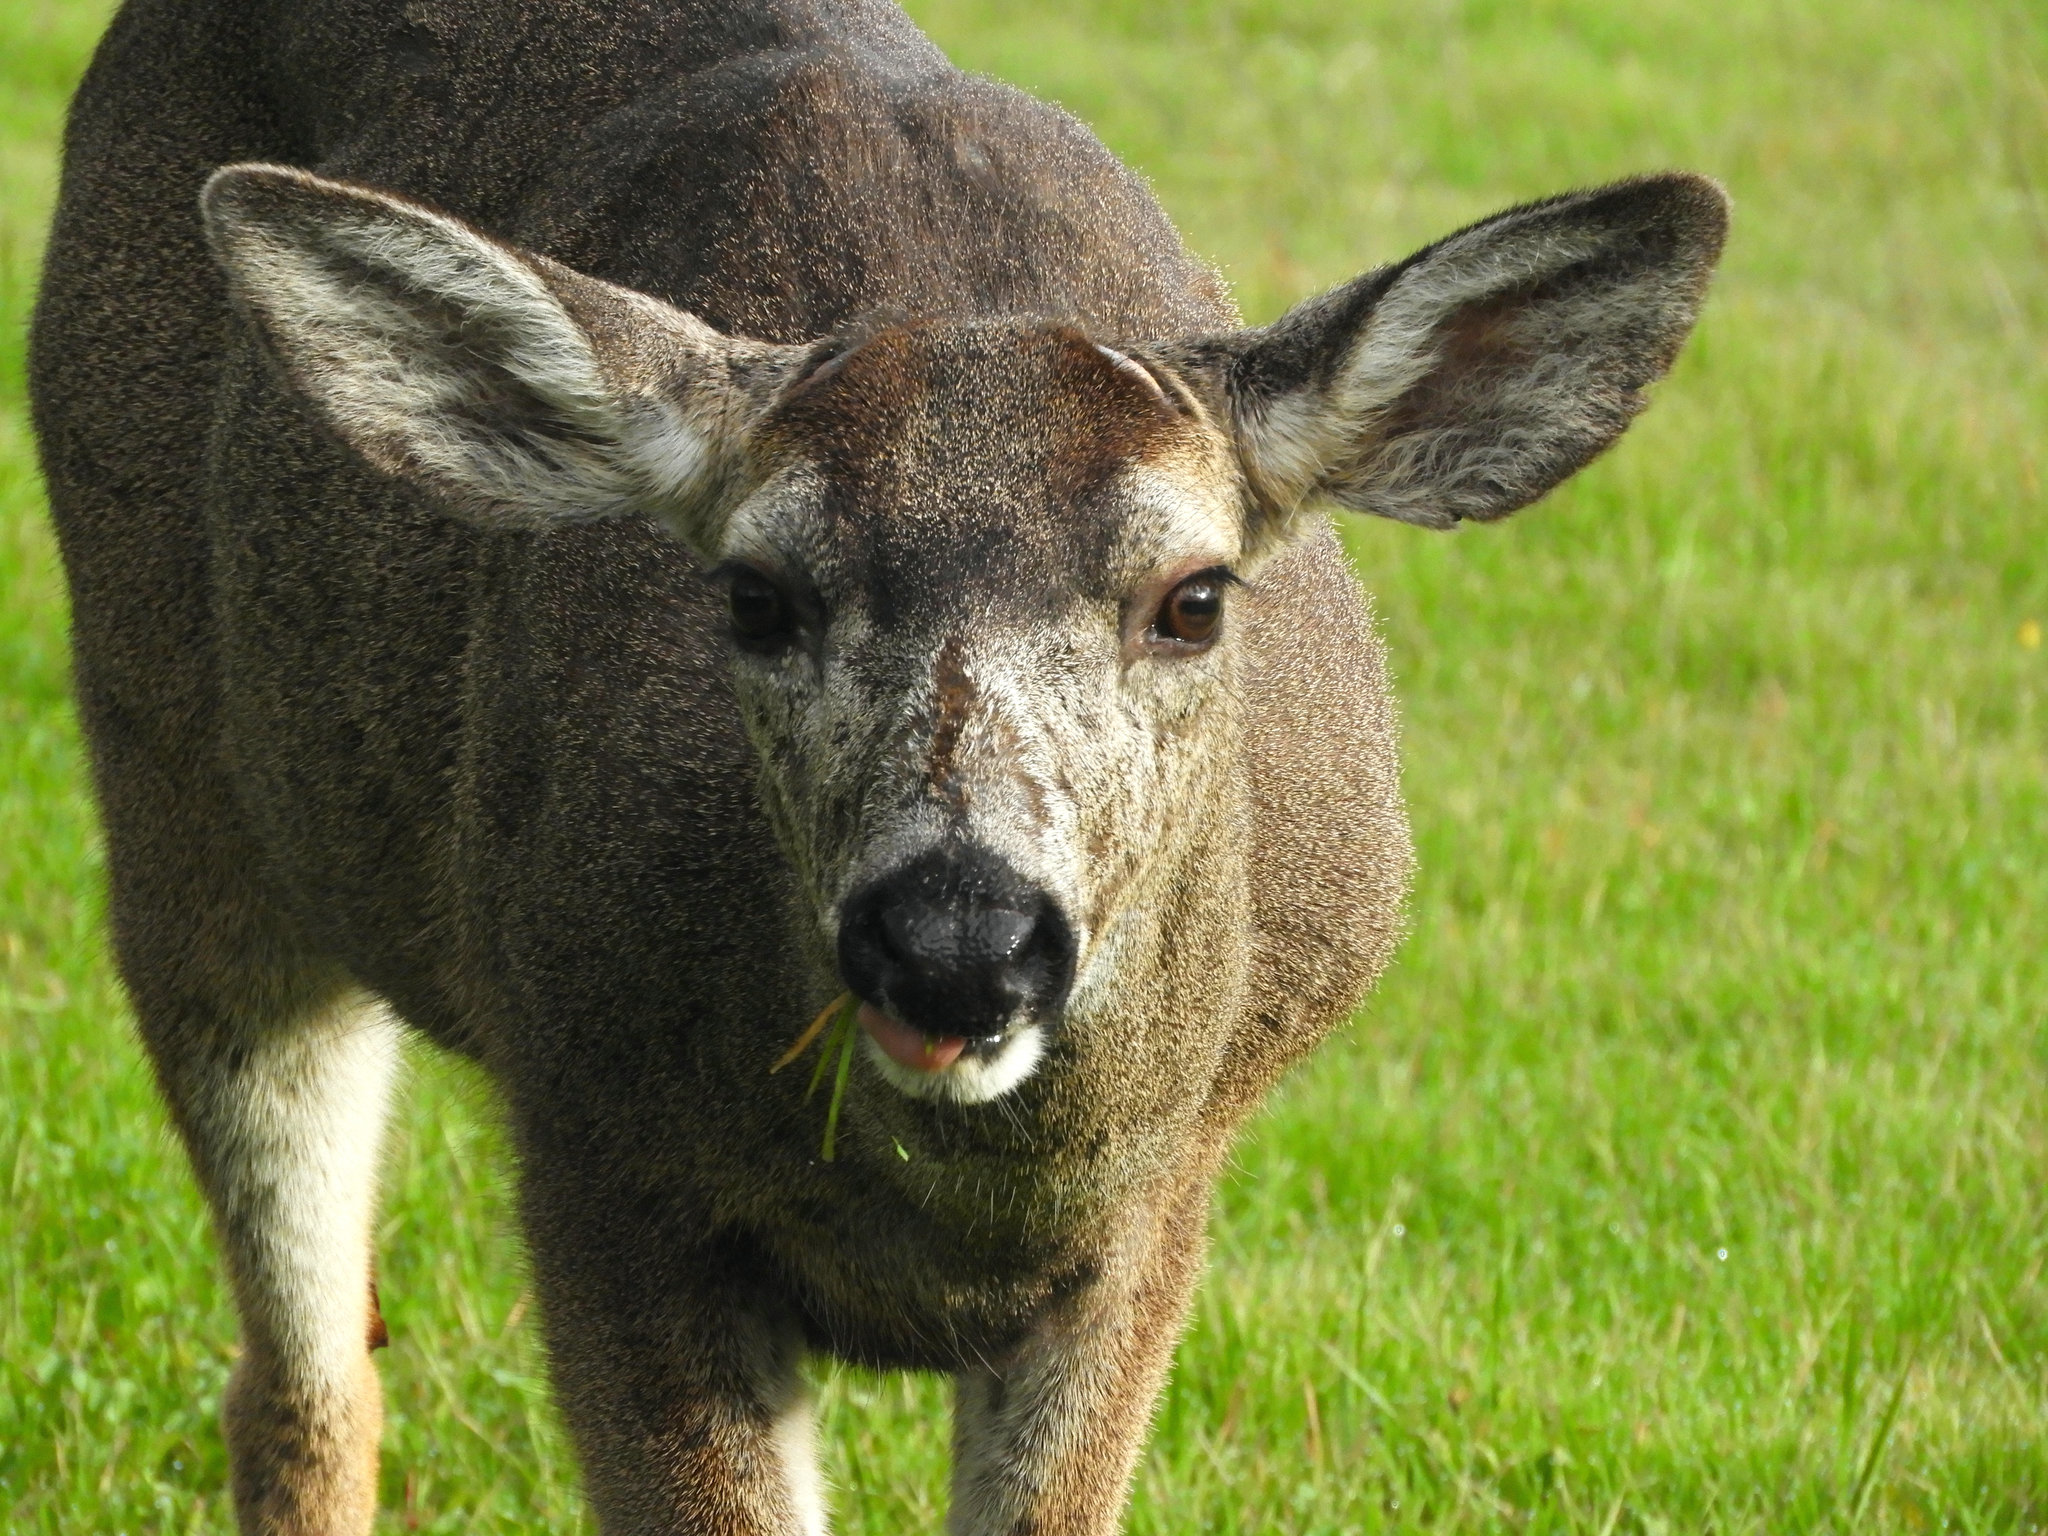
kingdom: Animalia
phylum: Chordata
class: Mammalia
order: Artiodactyla
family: Cervidae
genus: Odocoileus
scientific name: Odocoileus hemionus
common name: Mule deer
